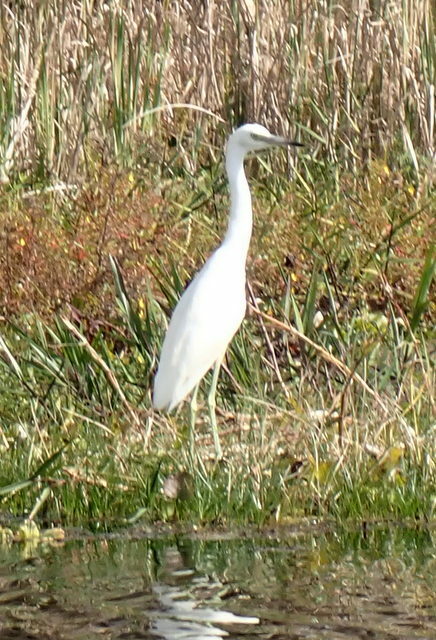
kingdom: Animalia
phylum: Chordata
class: Aves
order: Pelecaniformes
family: Ardeidae
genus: Egretta
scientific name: Egretta caerulea
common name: Little blue heron
